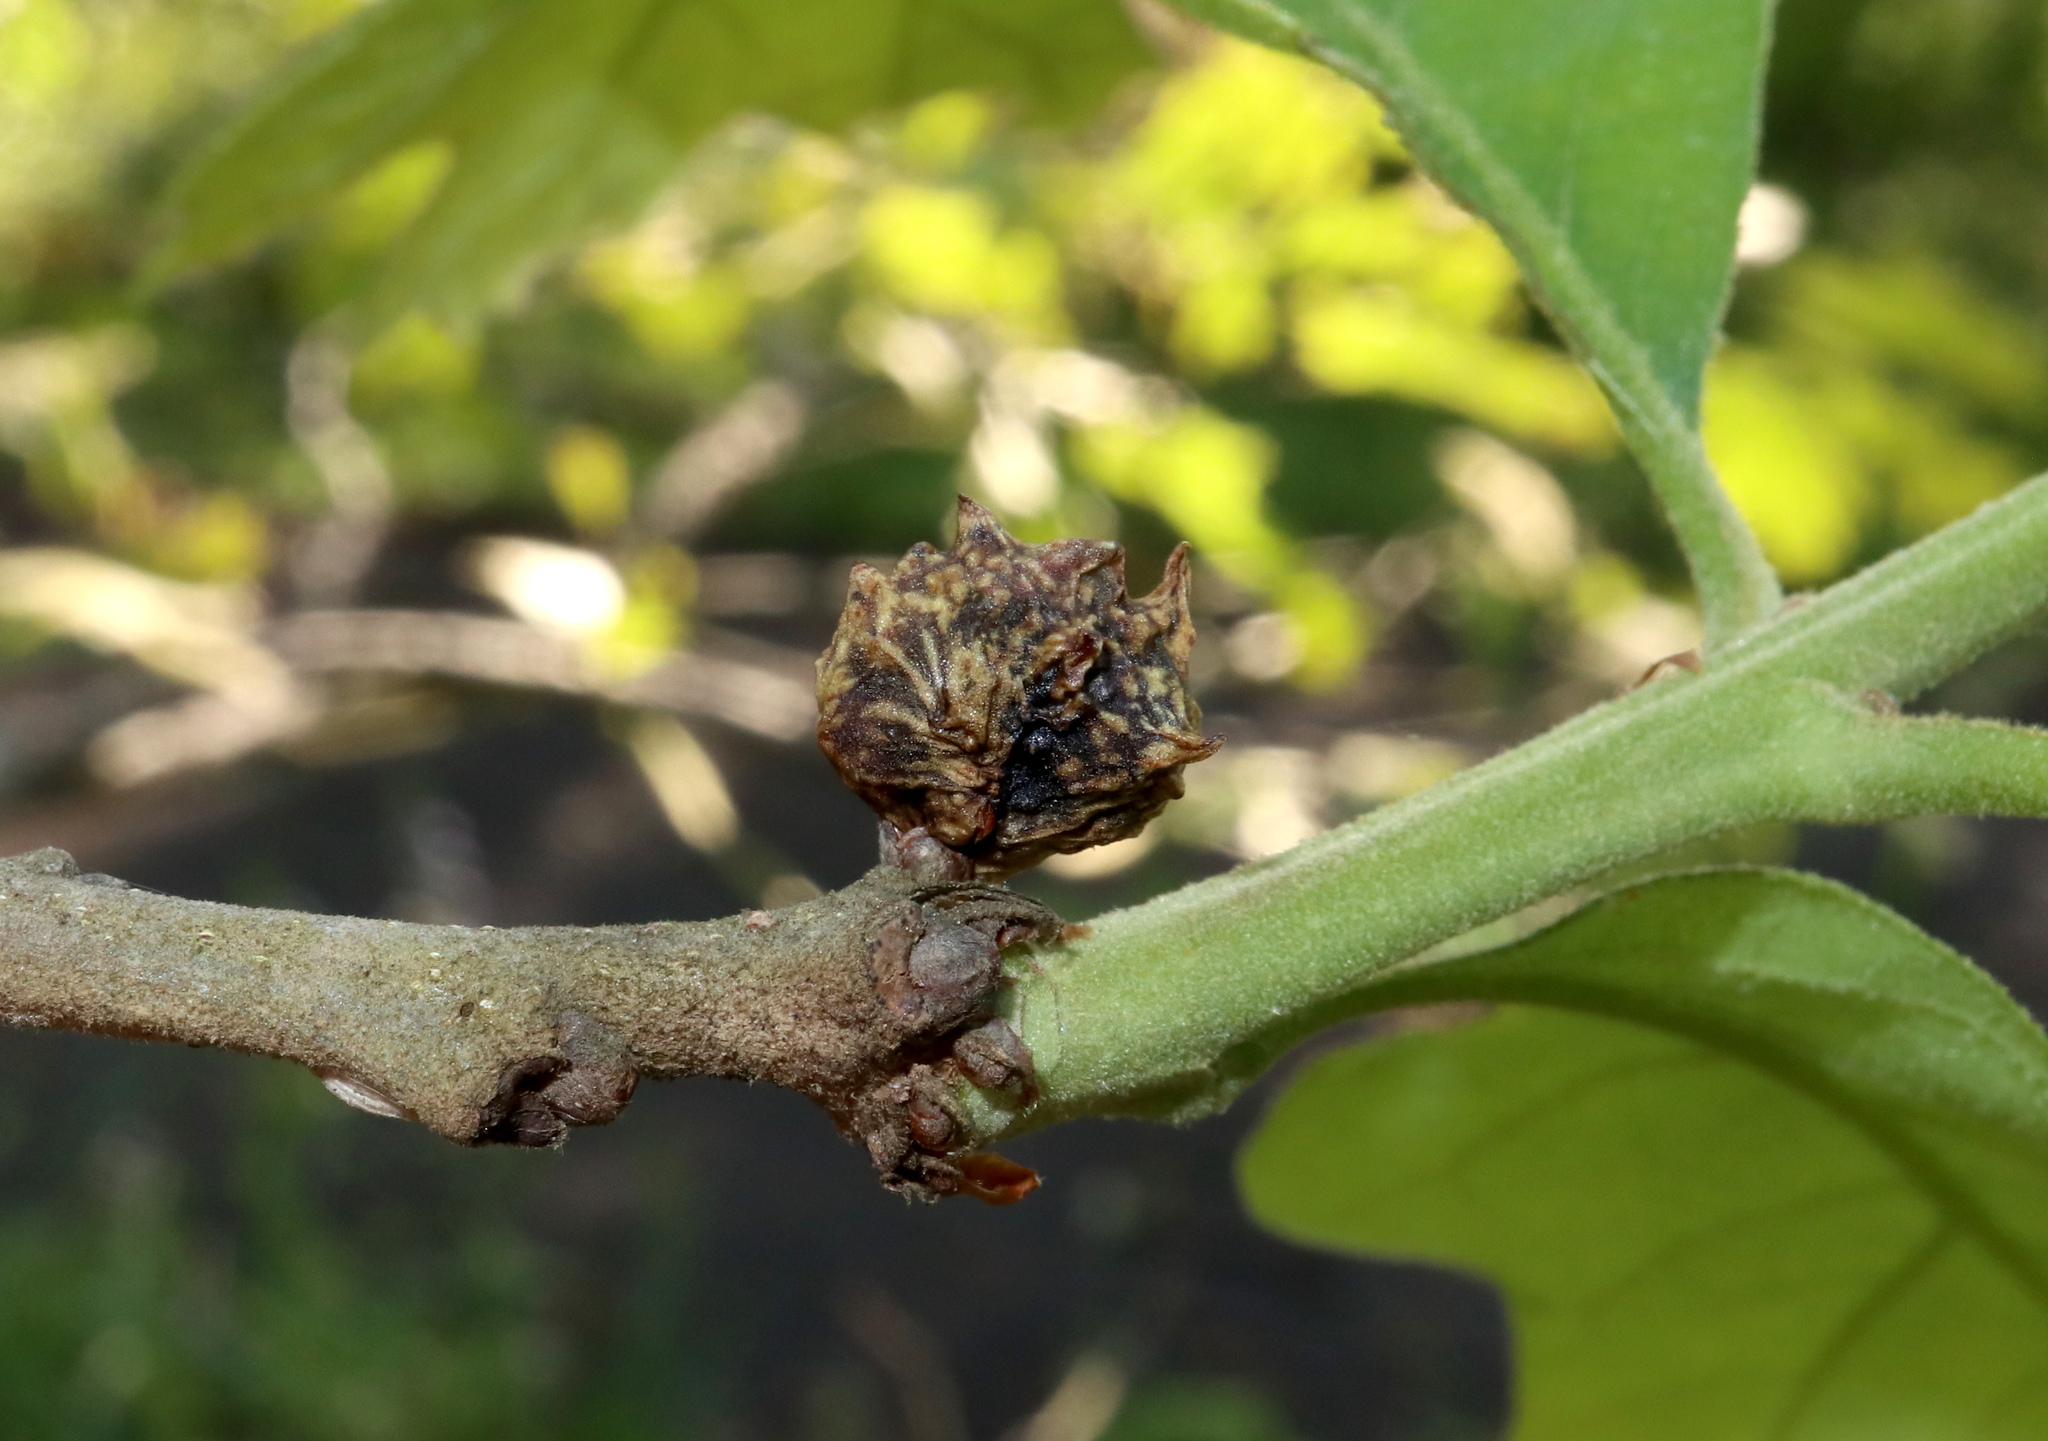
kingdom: Animalia
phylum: Arthropoda
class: Insecta
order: Hymenoptera
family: Cynipidae
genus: Andricus
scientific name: Andricus
